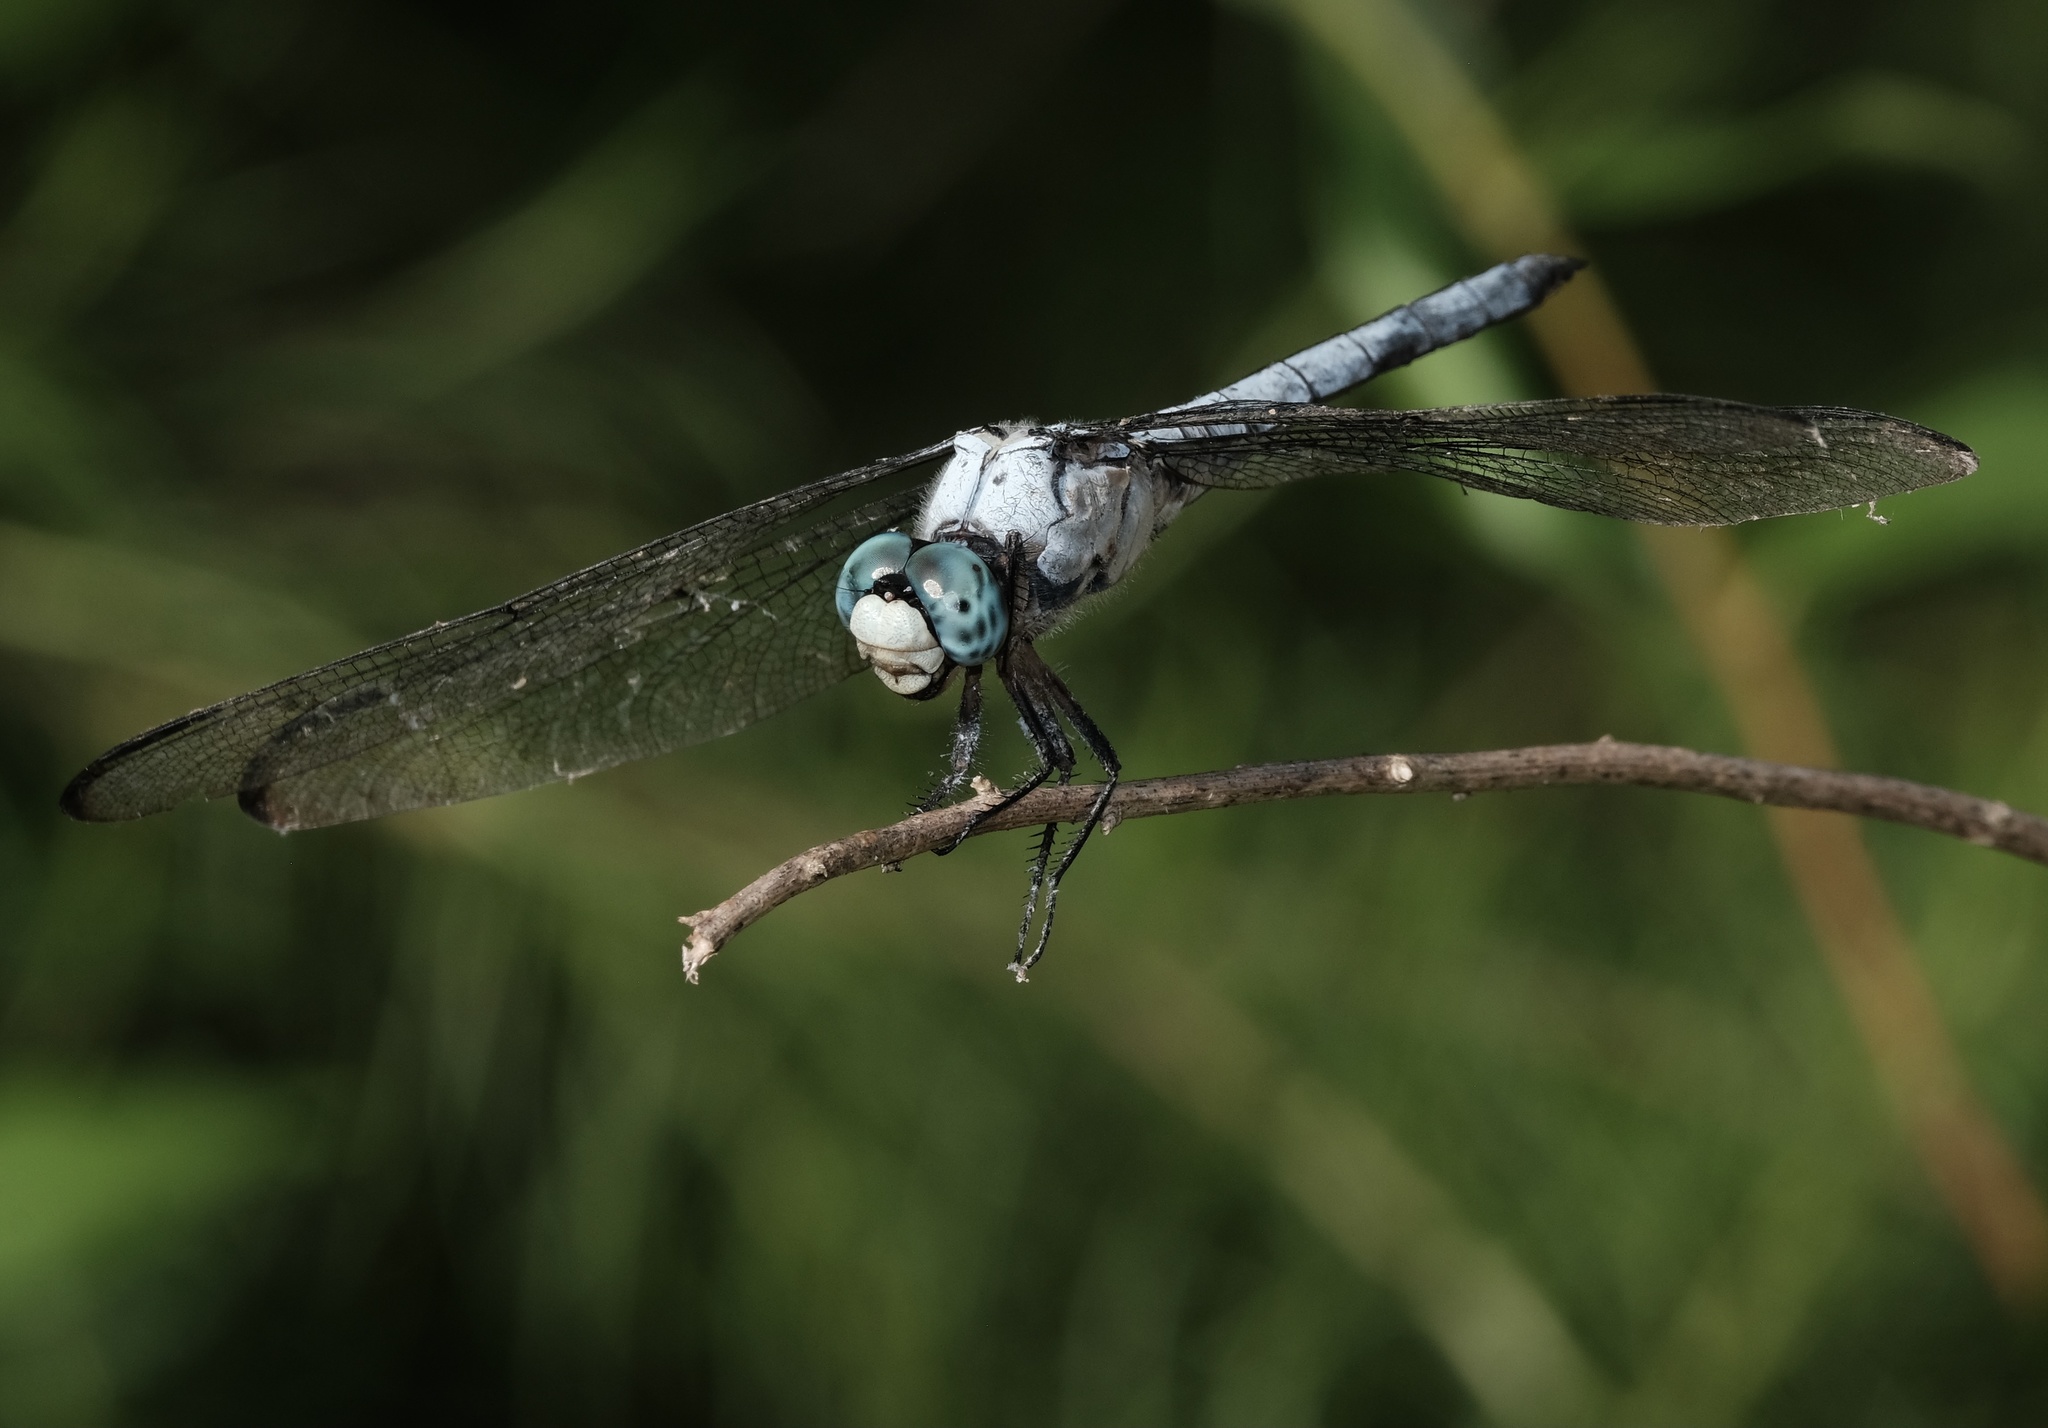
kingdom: Animalia
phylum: Arthropoda
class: Insecta
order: Odonata
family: Libellulidae
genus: Libellula
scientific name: Libellula vibrans
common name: Great blue skimmer
